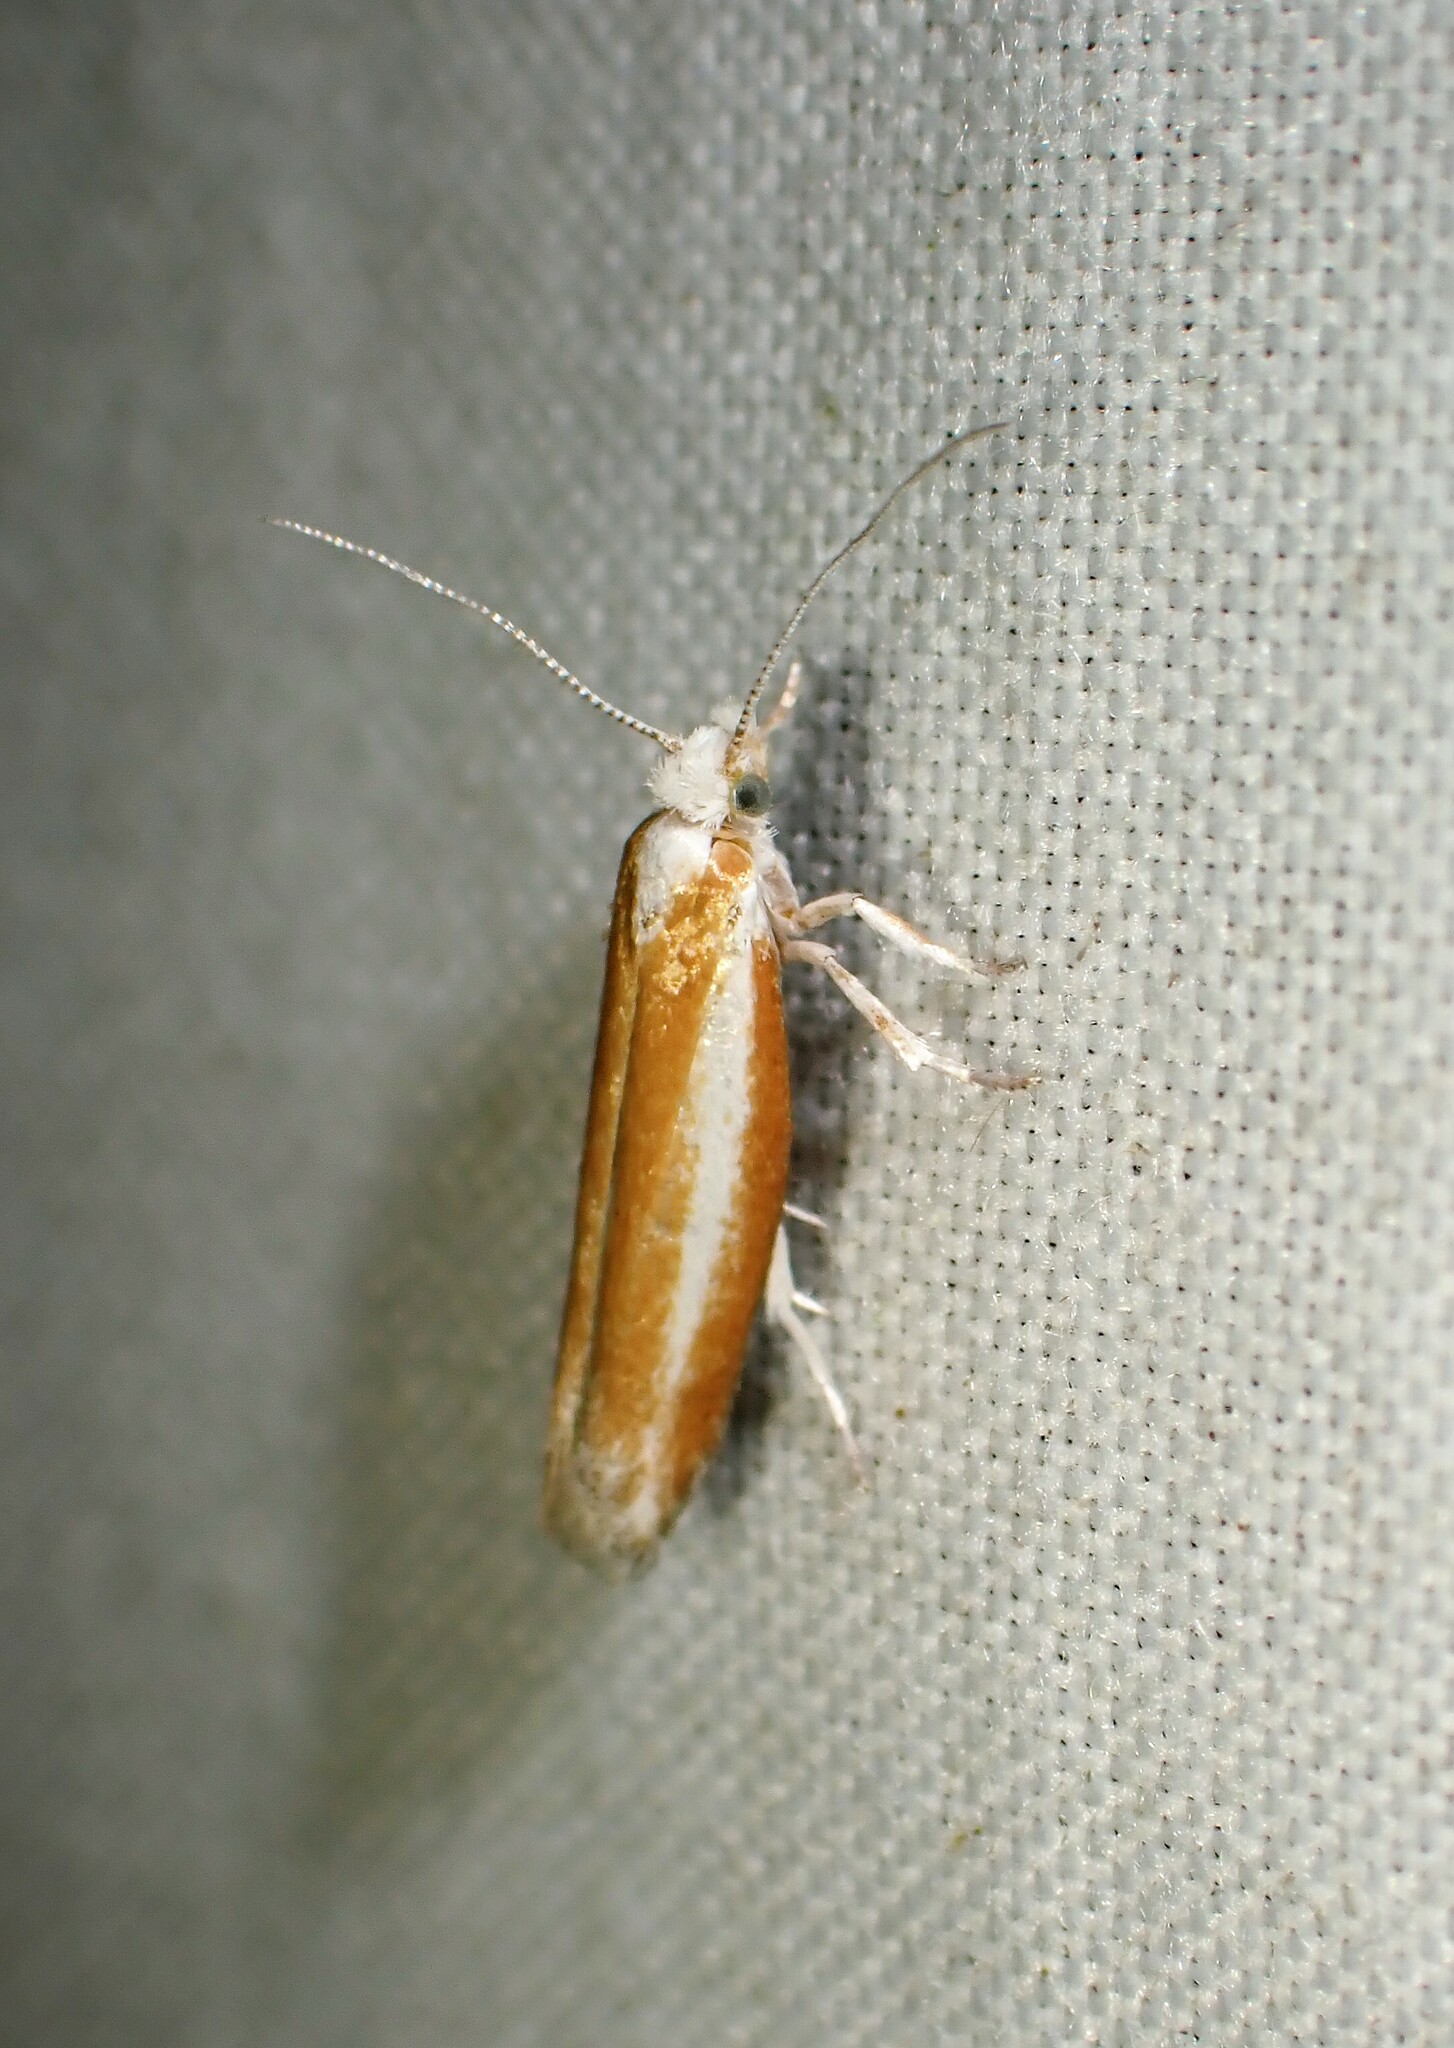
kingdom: Animalia
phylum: Arthropoda
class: Insecta
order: Lepidoptera
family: Yponomeutidae
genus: Zelleria
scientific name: Zelleria haimbachi
